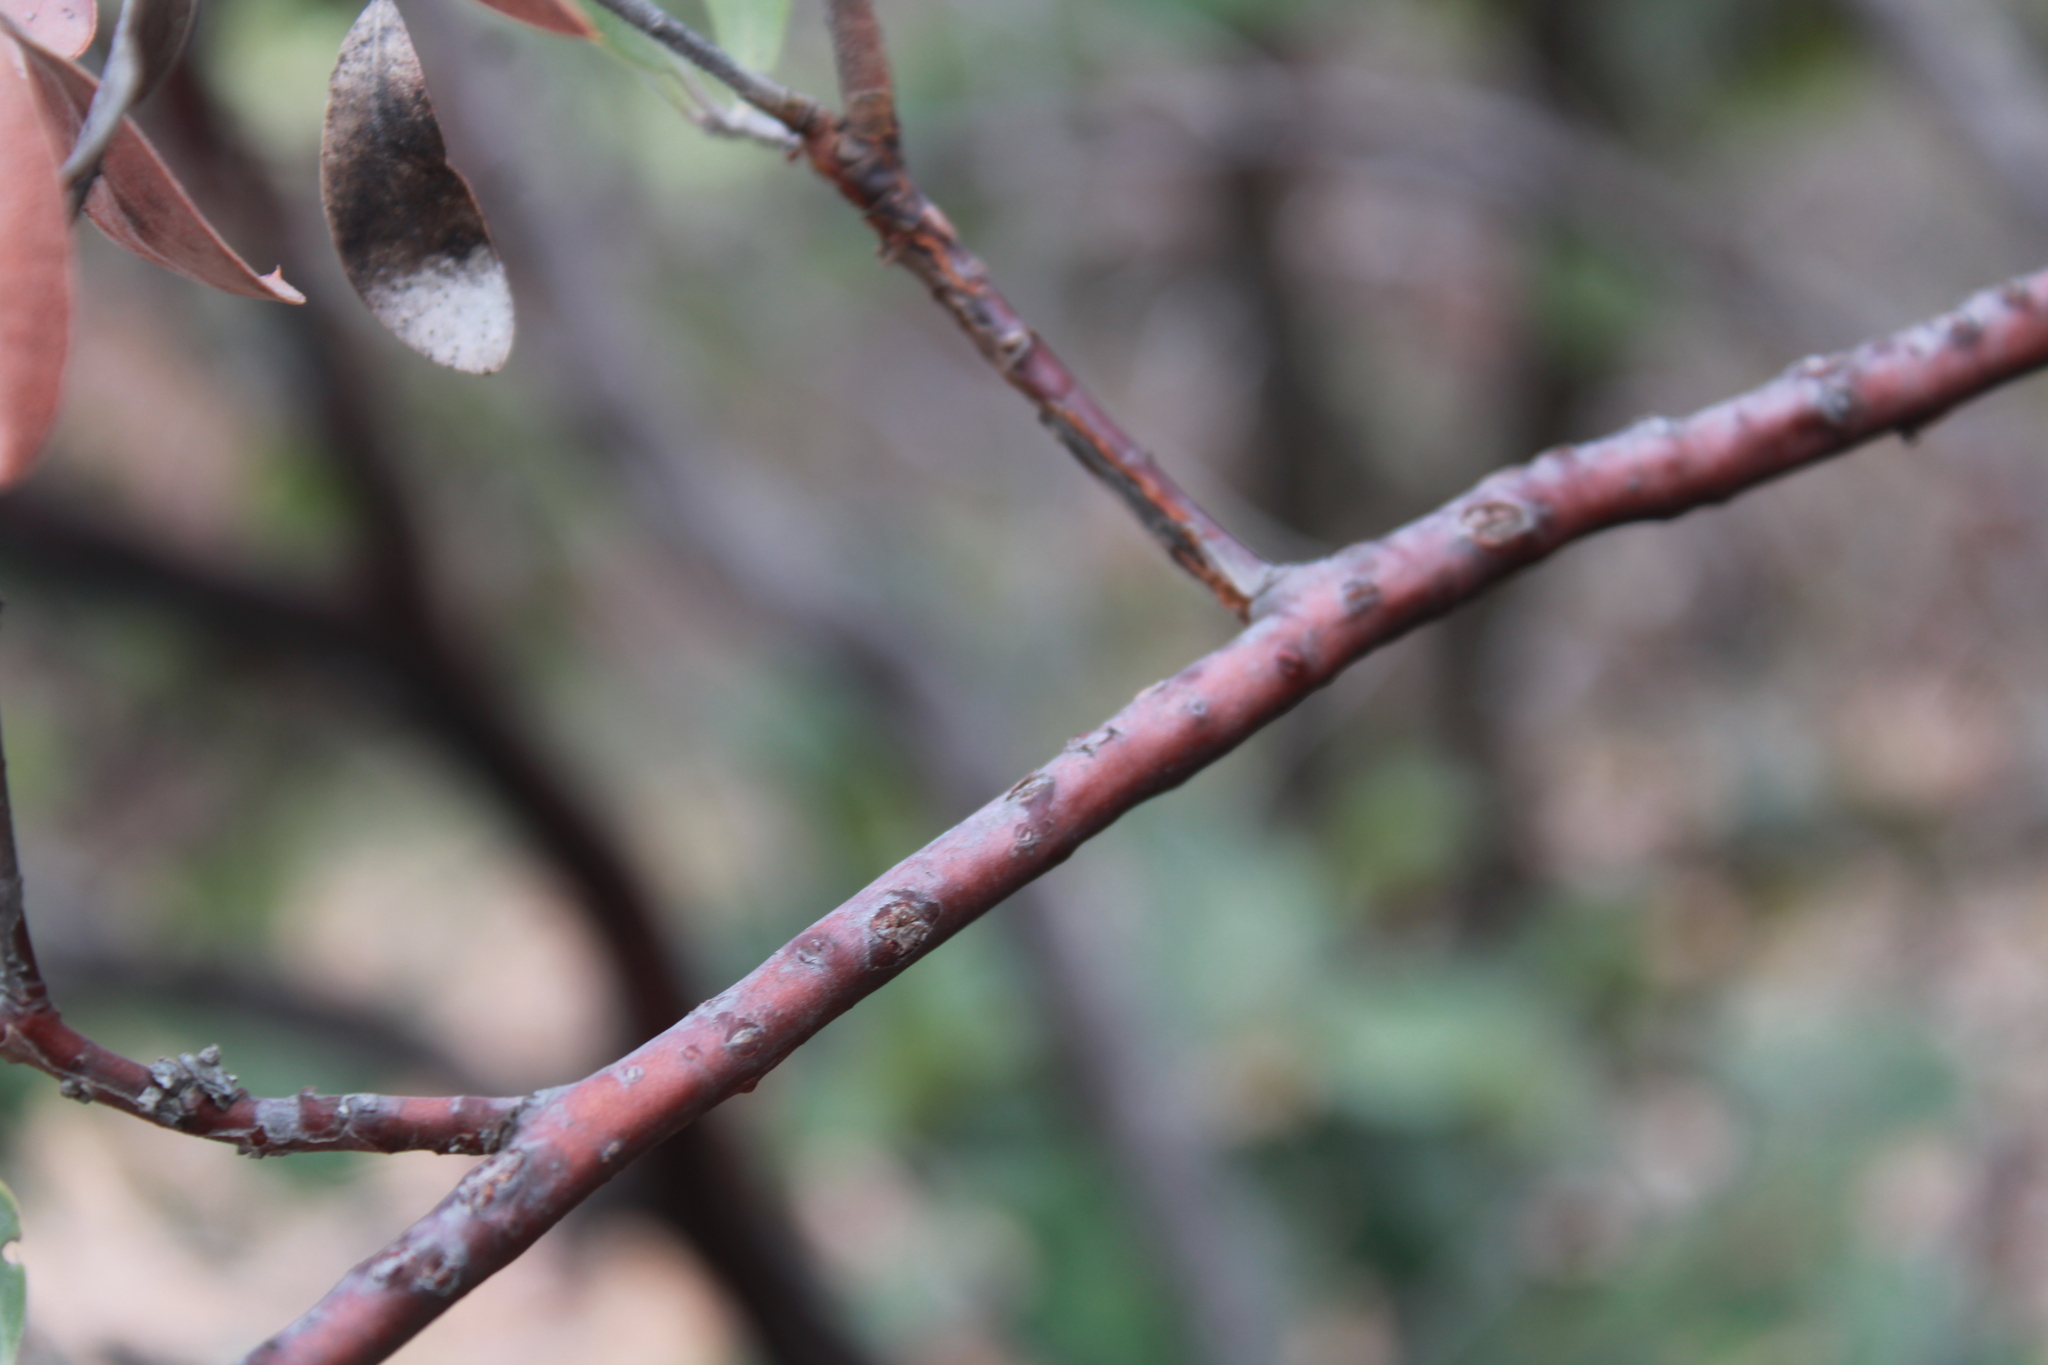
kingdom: Plantae
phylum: Tracheophyta
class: Magnoliopsida
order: Ericales
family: Ericaceae
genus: Arctostaphylos
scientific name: Arctostaphylos pungens
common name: Mexican manzanita
